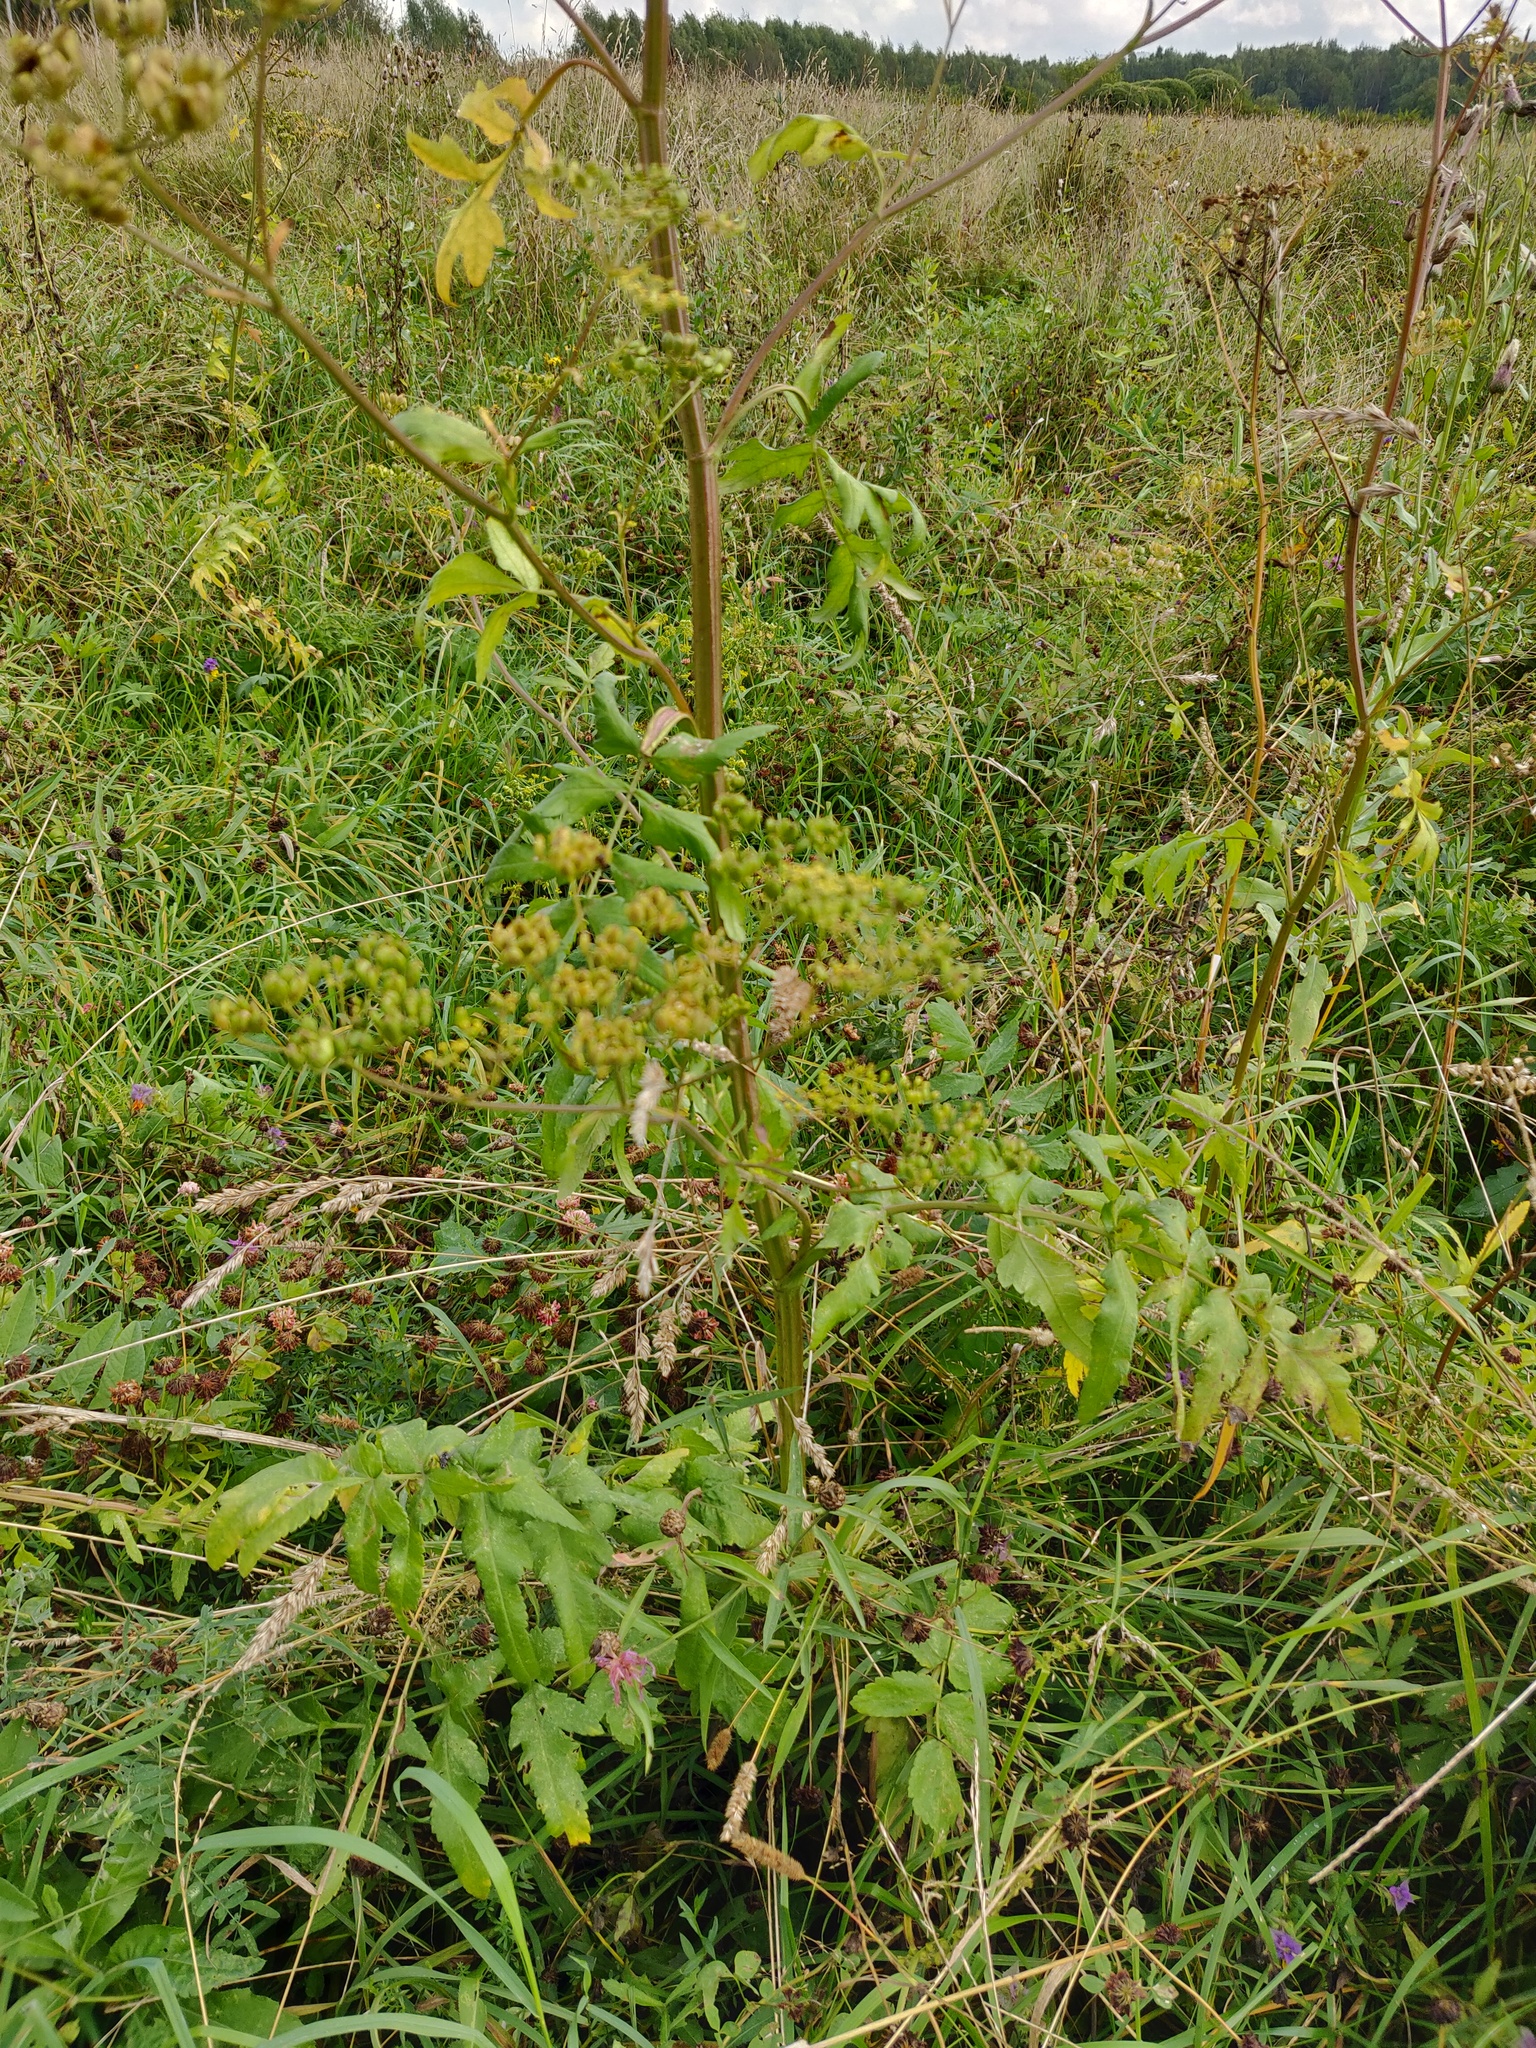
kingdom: Plantae
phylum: Tracheophyta
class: Magnoliopsida
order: Apiales
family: Apiaceae
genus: Pastinaca
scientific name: Pastinaca sativa
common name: Wild parsnip
